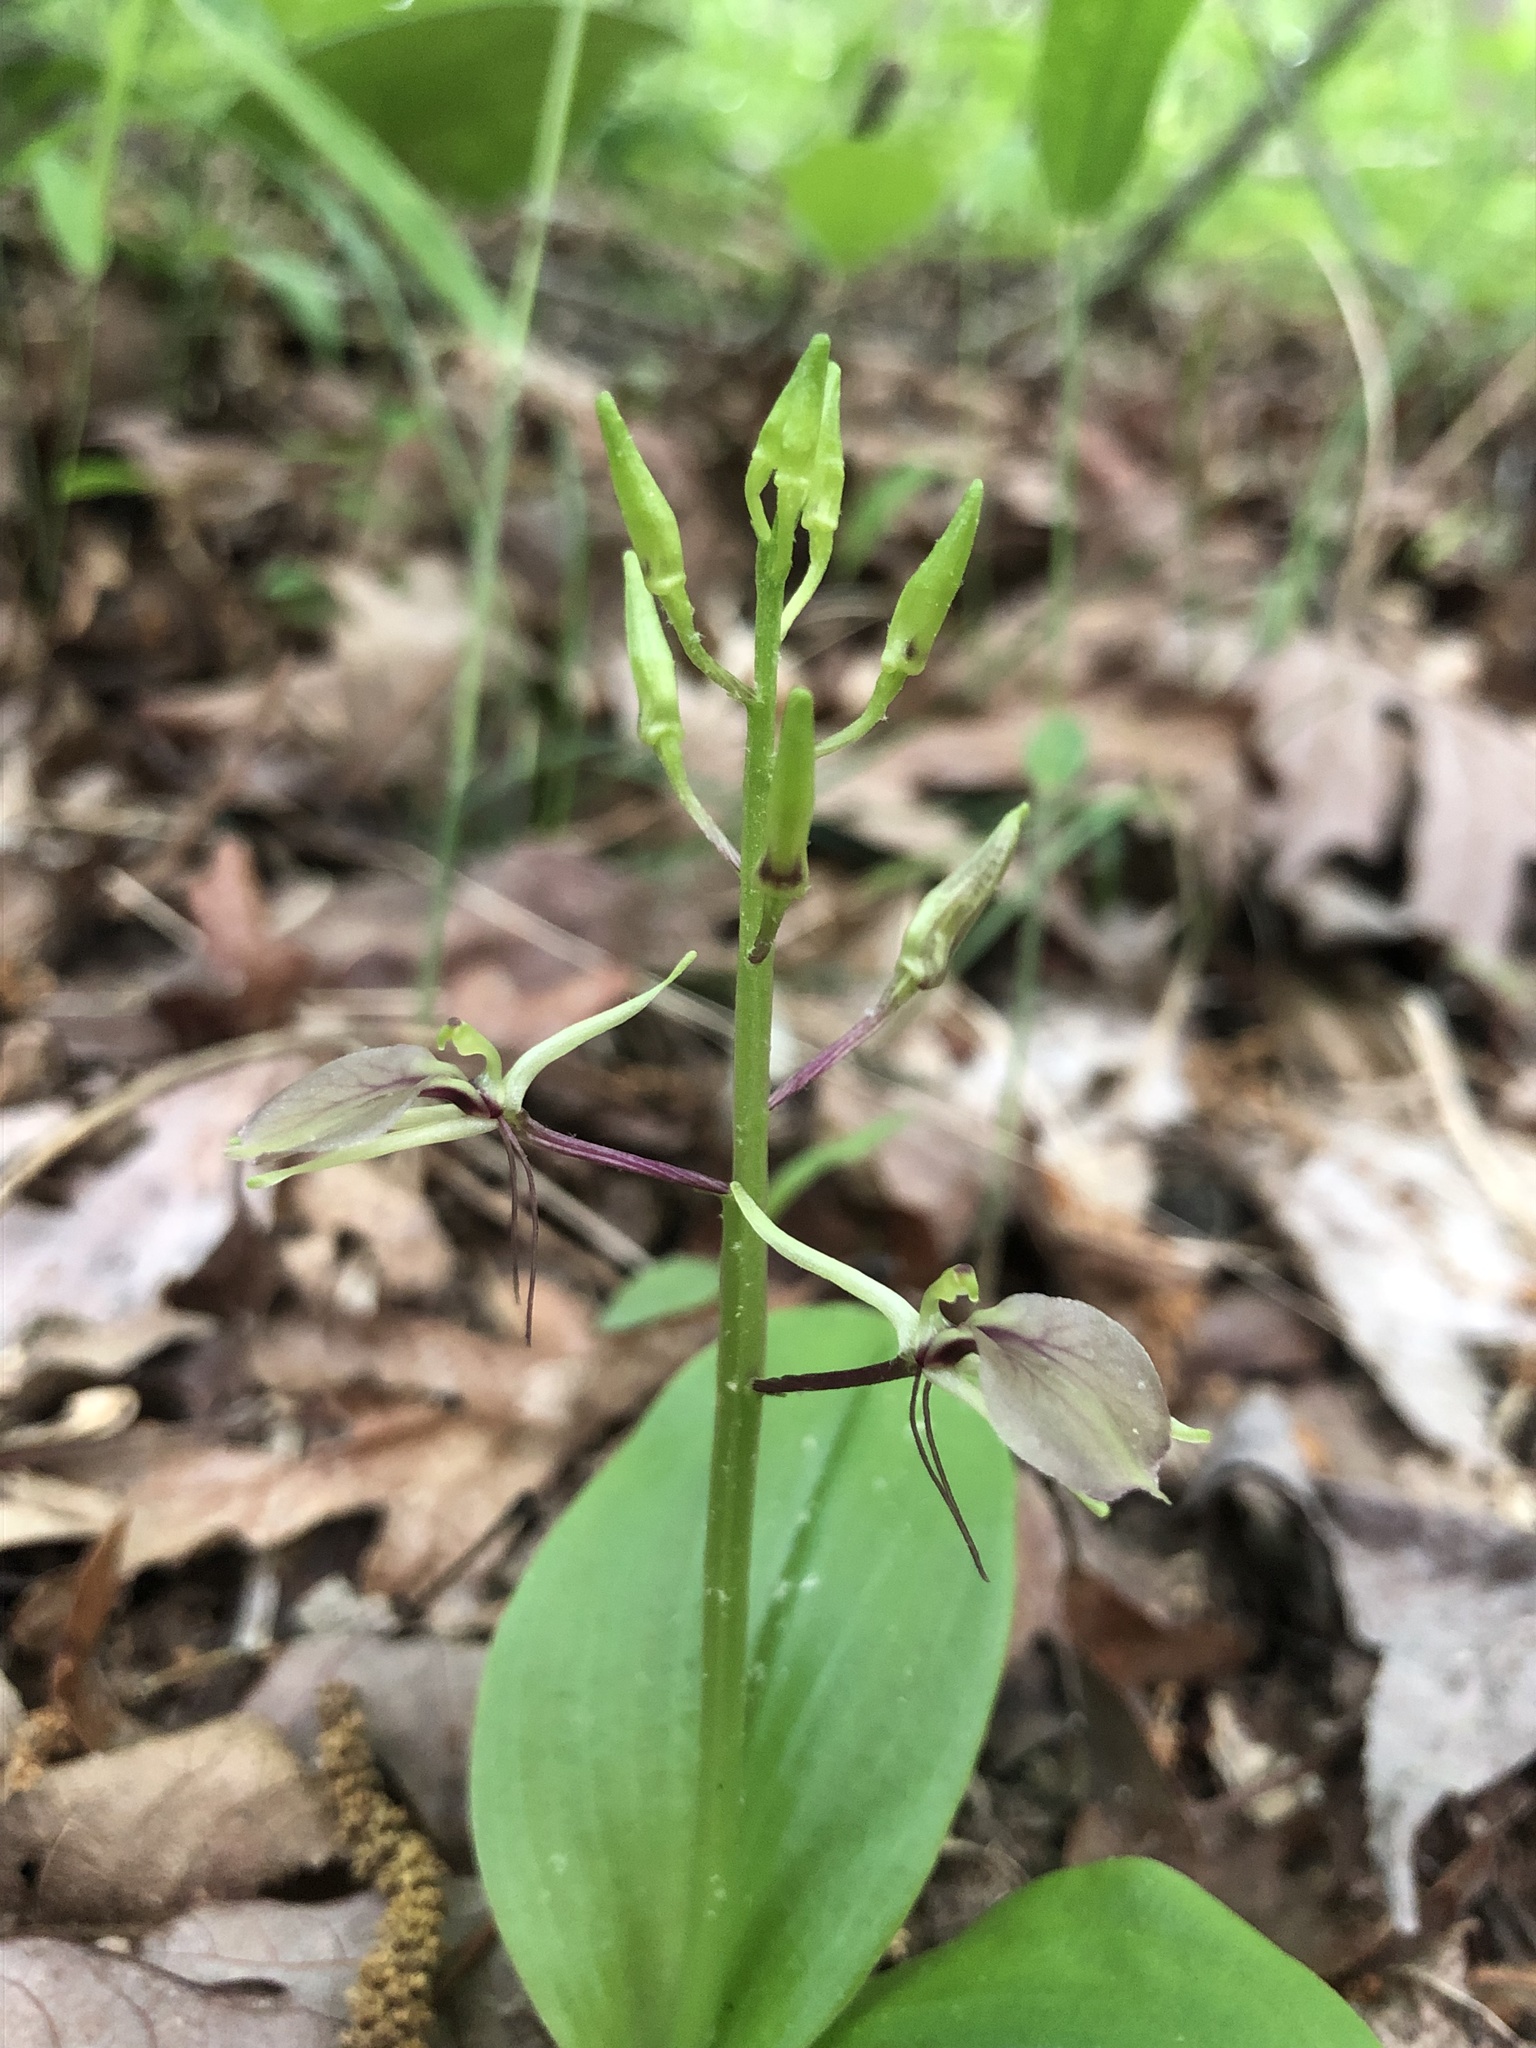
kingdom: Plantae
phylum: Tracheophyta
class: Liliopsida
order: Asparagales
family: Orchidaceae
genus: Liparis
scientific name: Liparis liliifolia
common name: Brown wide-lip orchid
